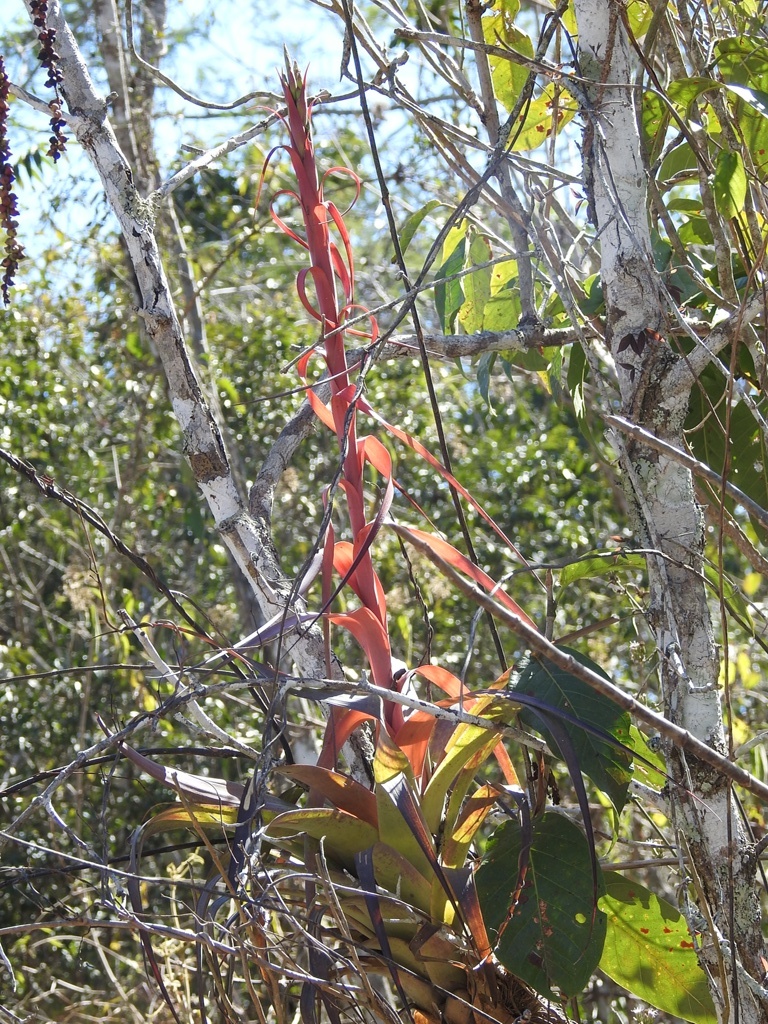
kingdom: Plantae
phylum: Tracheophyta
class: Liliopsida
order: Poales
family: Bromeliaceae
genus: Tillandsia
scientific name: Tillandsia polystachia
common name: Airplant
